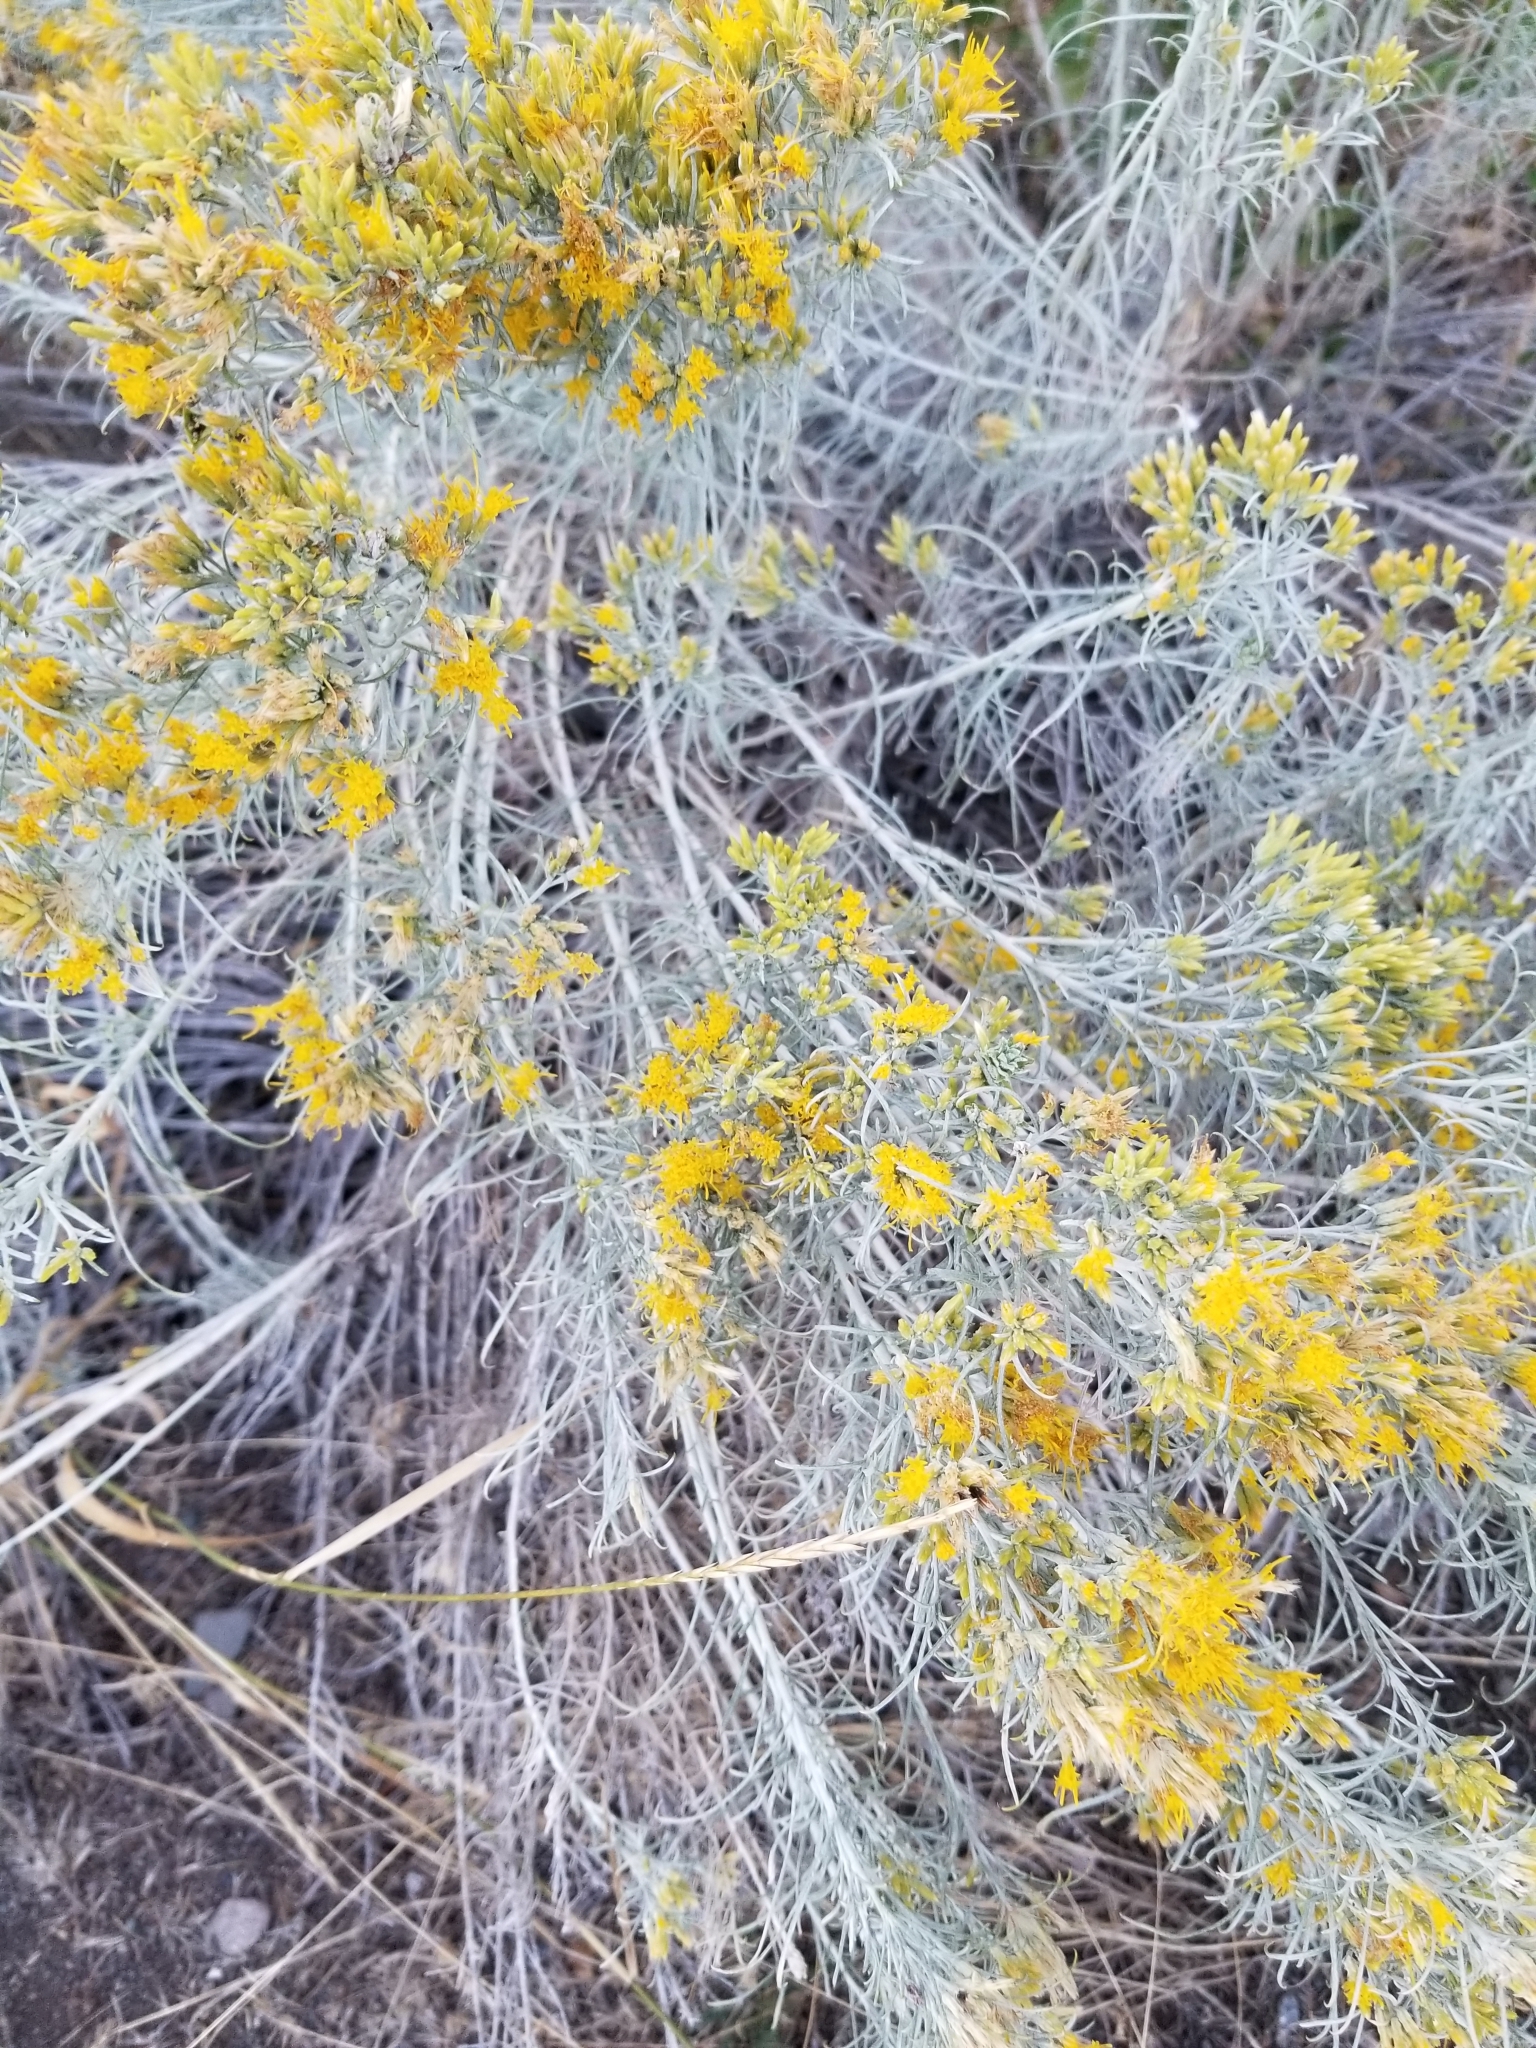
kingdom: Plantae
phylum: Tracheophyta
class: Magnoliopsida
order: Asterales
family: Asteraceae
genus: Ericameria
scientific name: Ericameria nauseosa
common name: Rubber rabbitbrush
